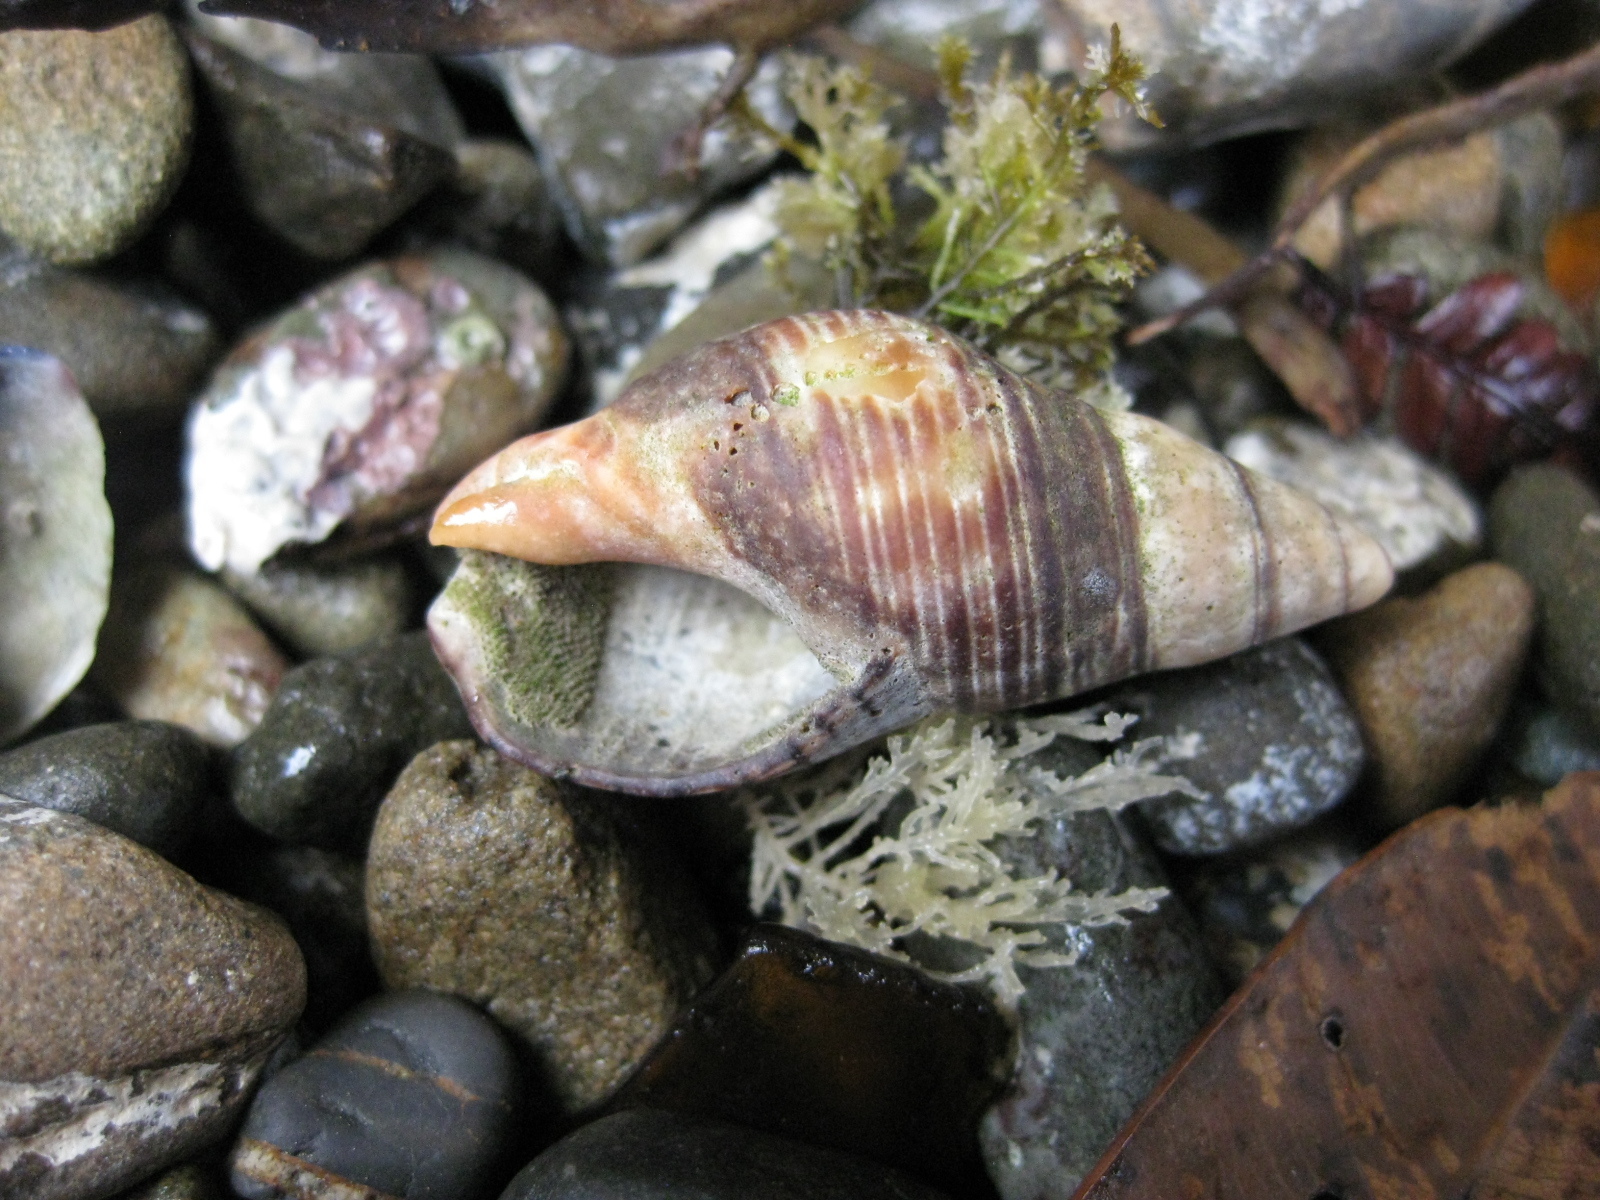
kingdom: Animalia
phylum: Mollusca
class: Gastropoda
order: Neogastropoda
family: Cominellidae
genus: Cominella
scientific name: Cominella virgata
